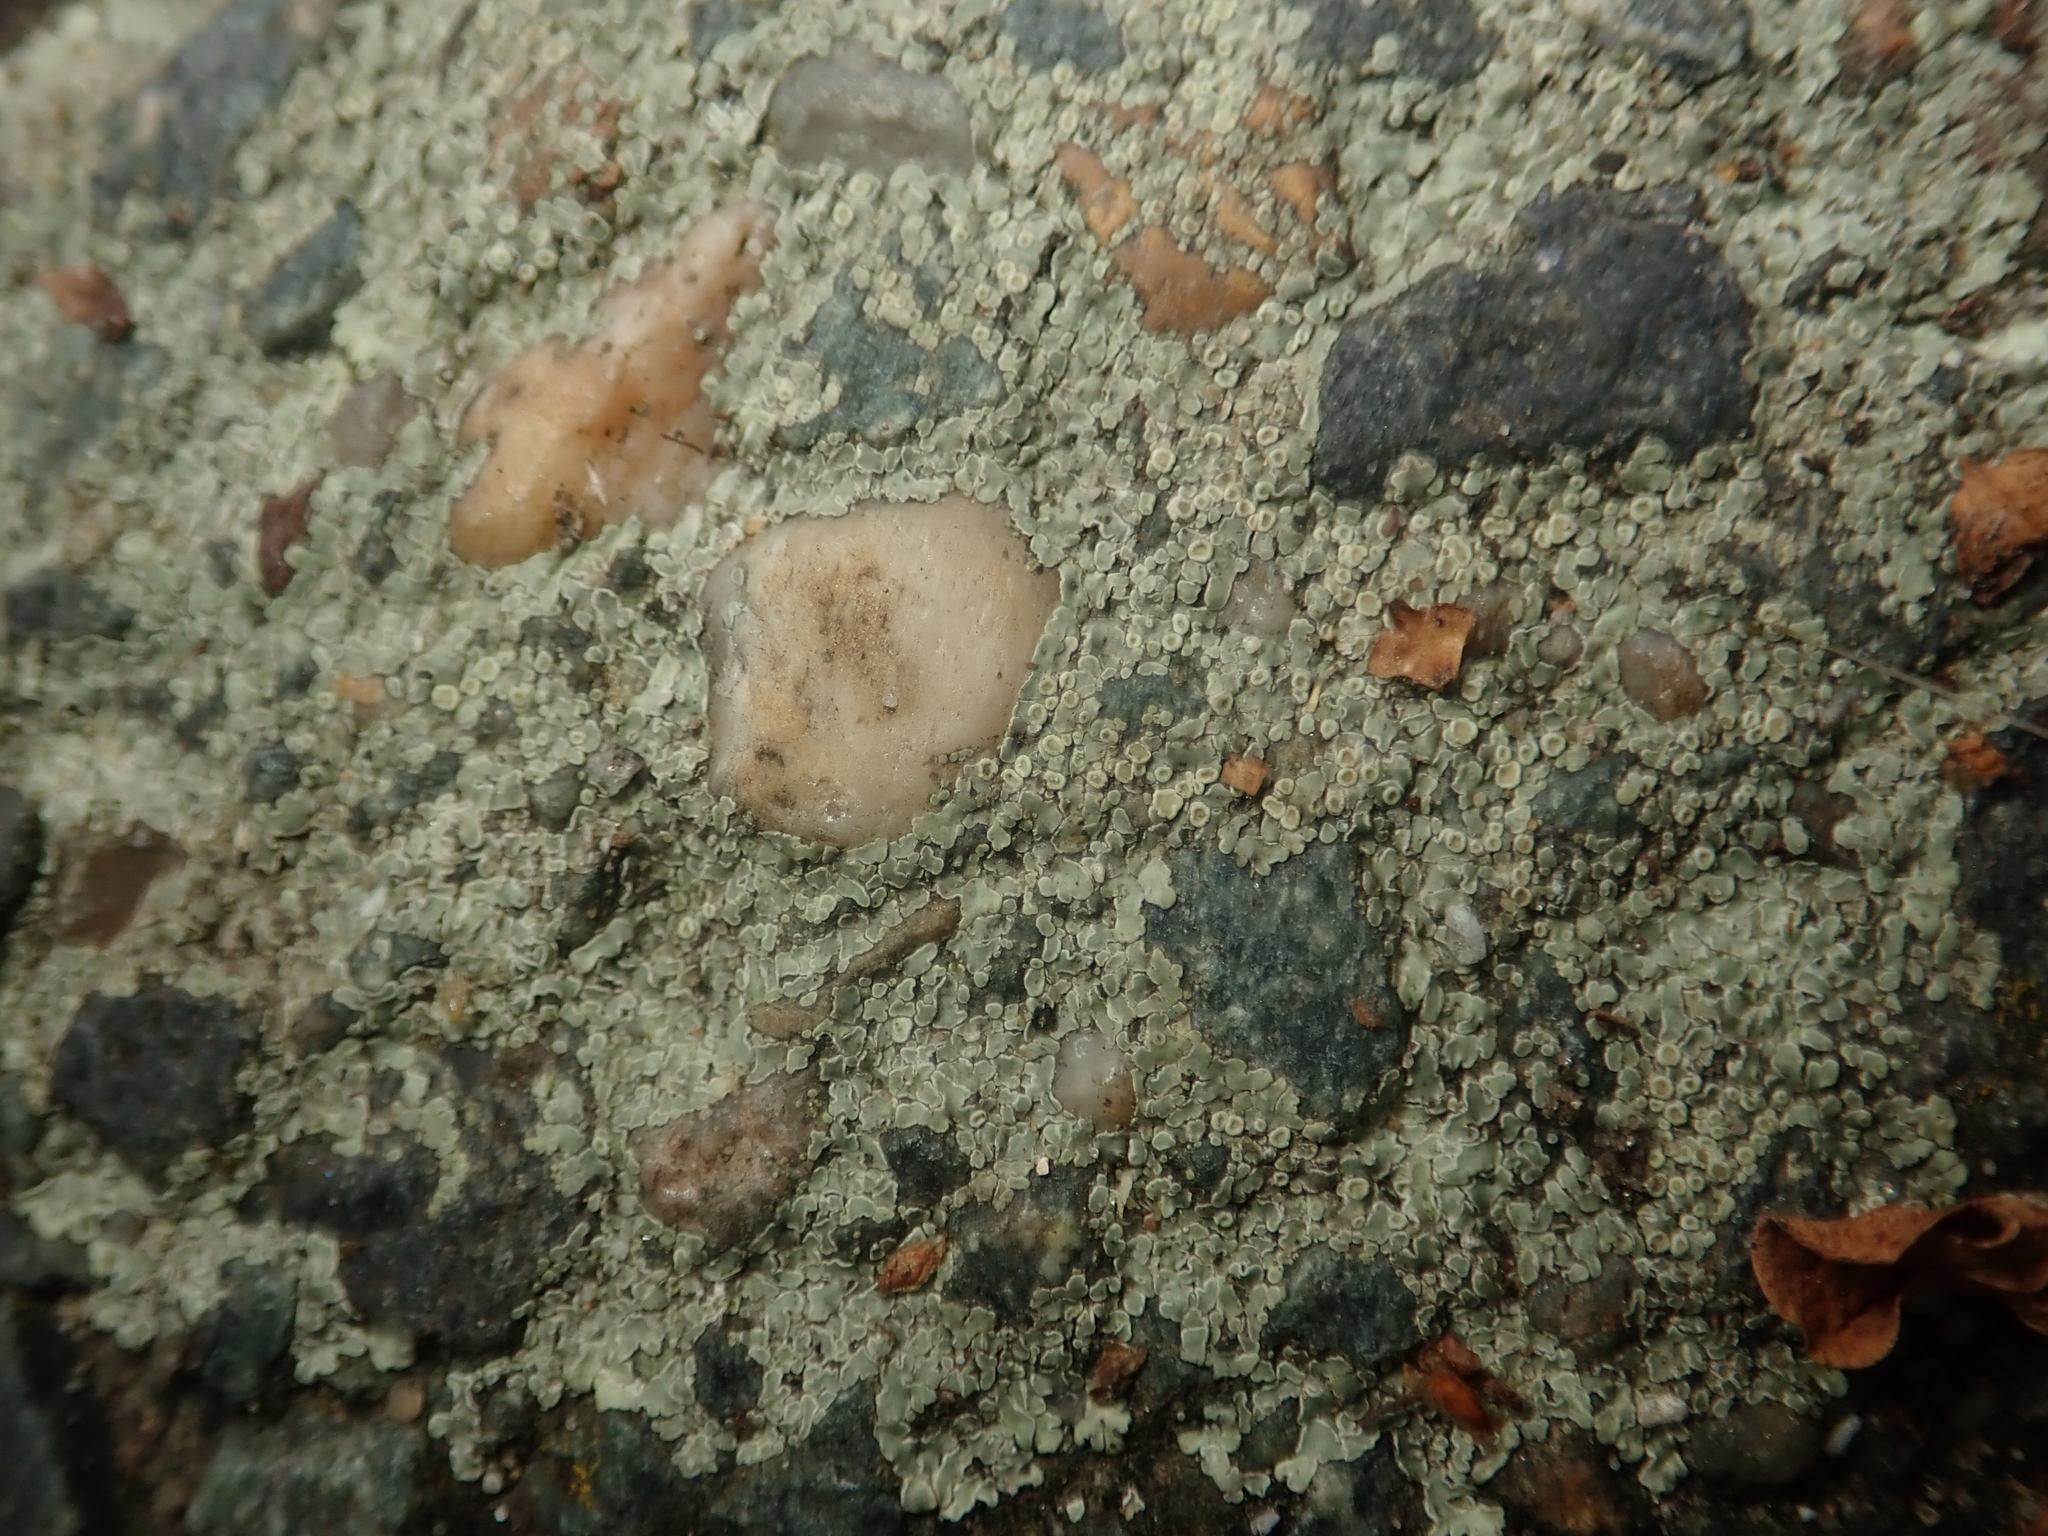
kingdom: Fungi
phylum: Ascomycota
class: Lecanoromycetes
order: Lecanorales
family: Lecanoraceae
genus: Protoparmeliopsis
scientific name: Protoparmeliopsis muralis
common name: Stonewall rim lichen
